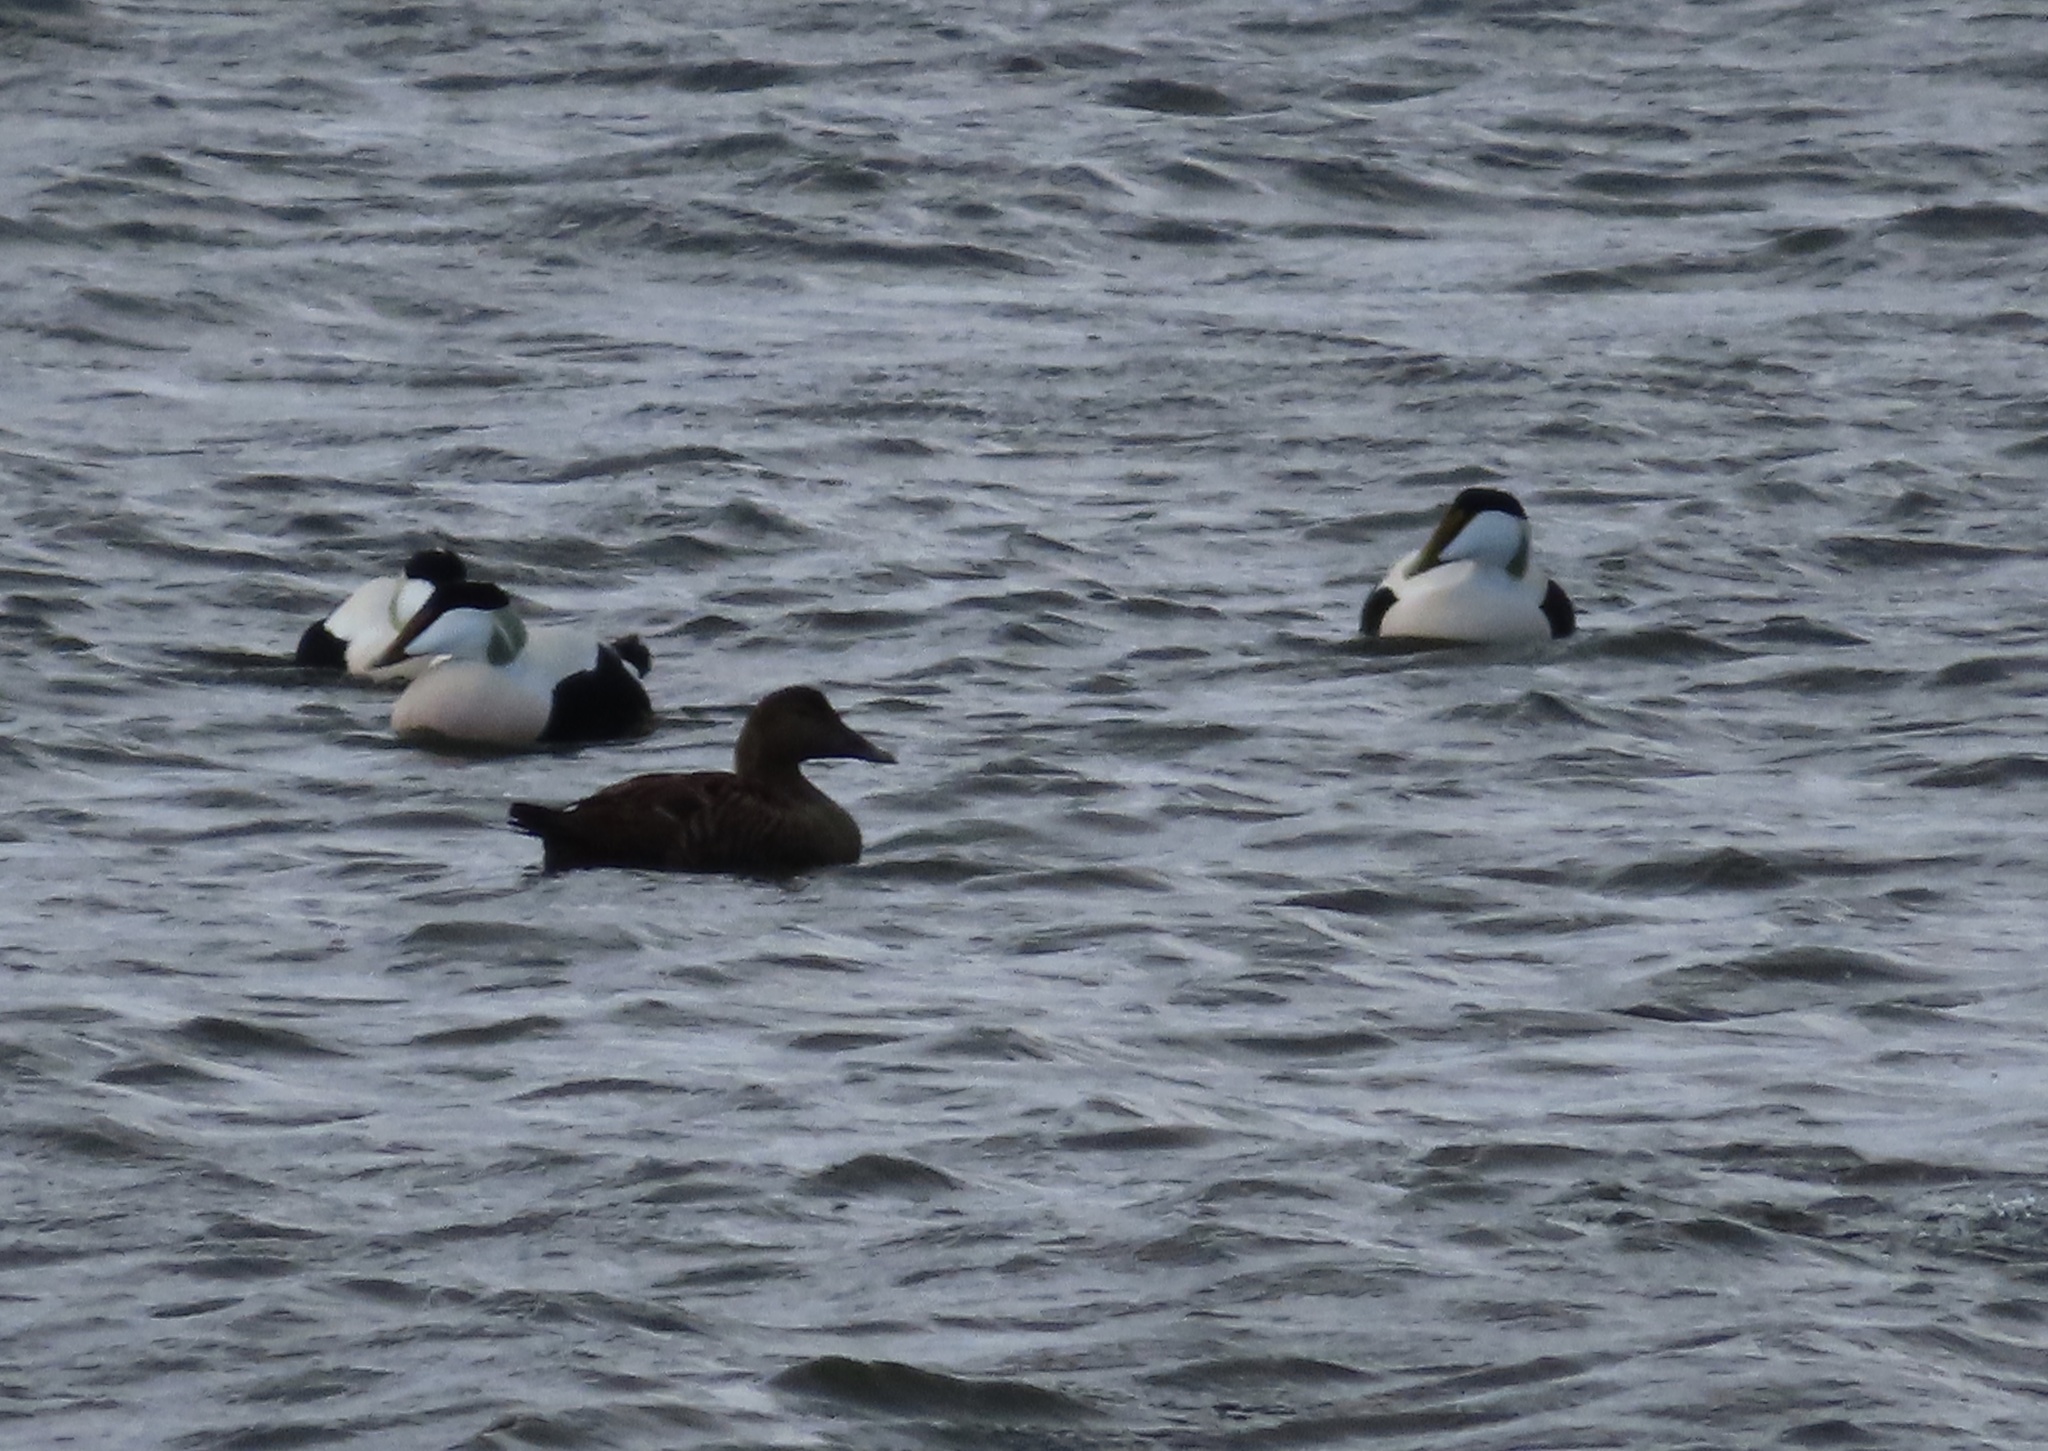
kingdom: Animalia
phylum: Chordata
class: Aves
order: Anseriformes
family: Anatidae
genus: Somateria
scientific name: Somateria mollissima
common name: Common eider
